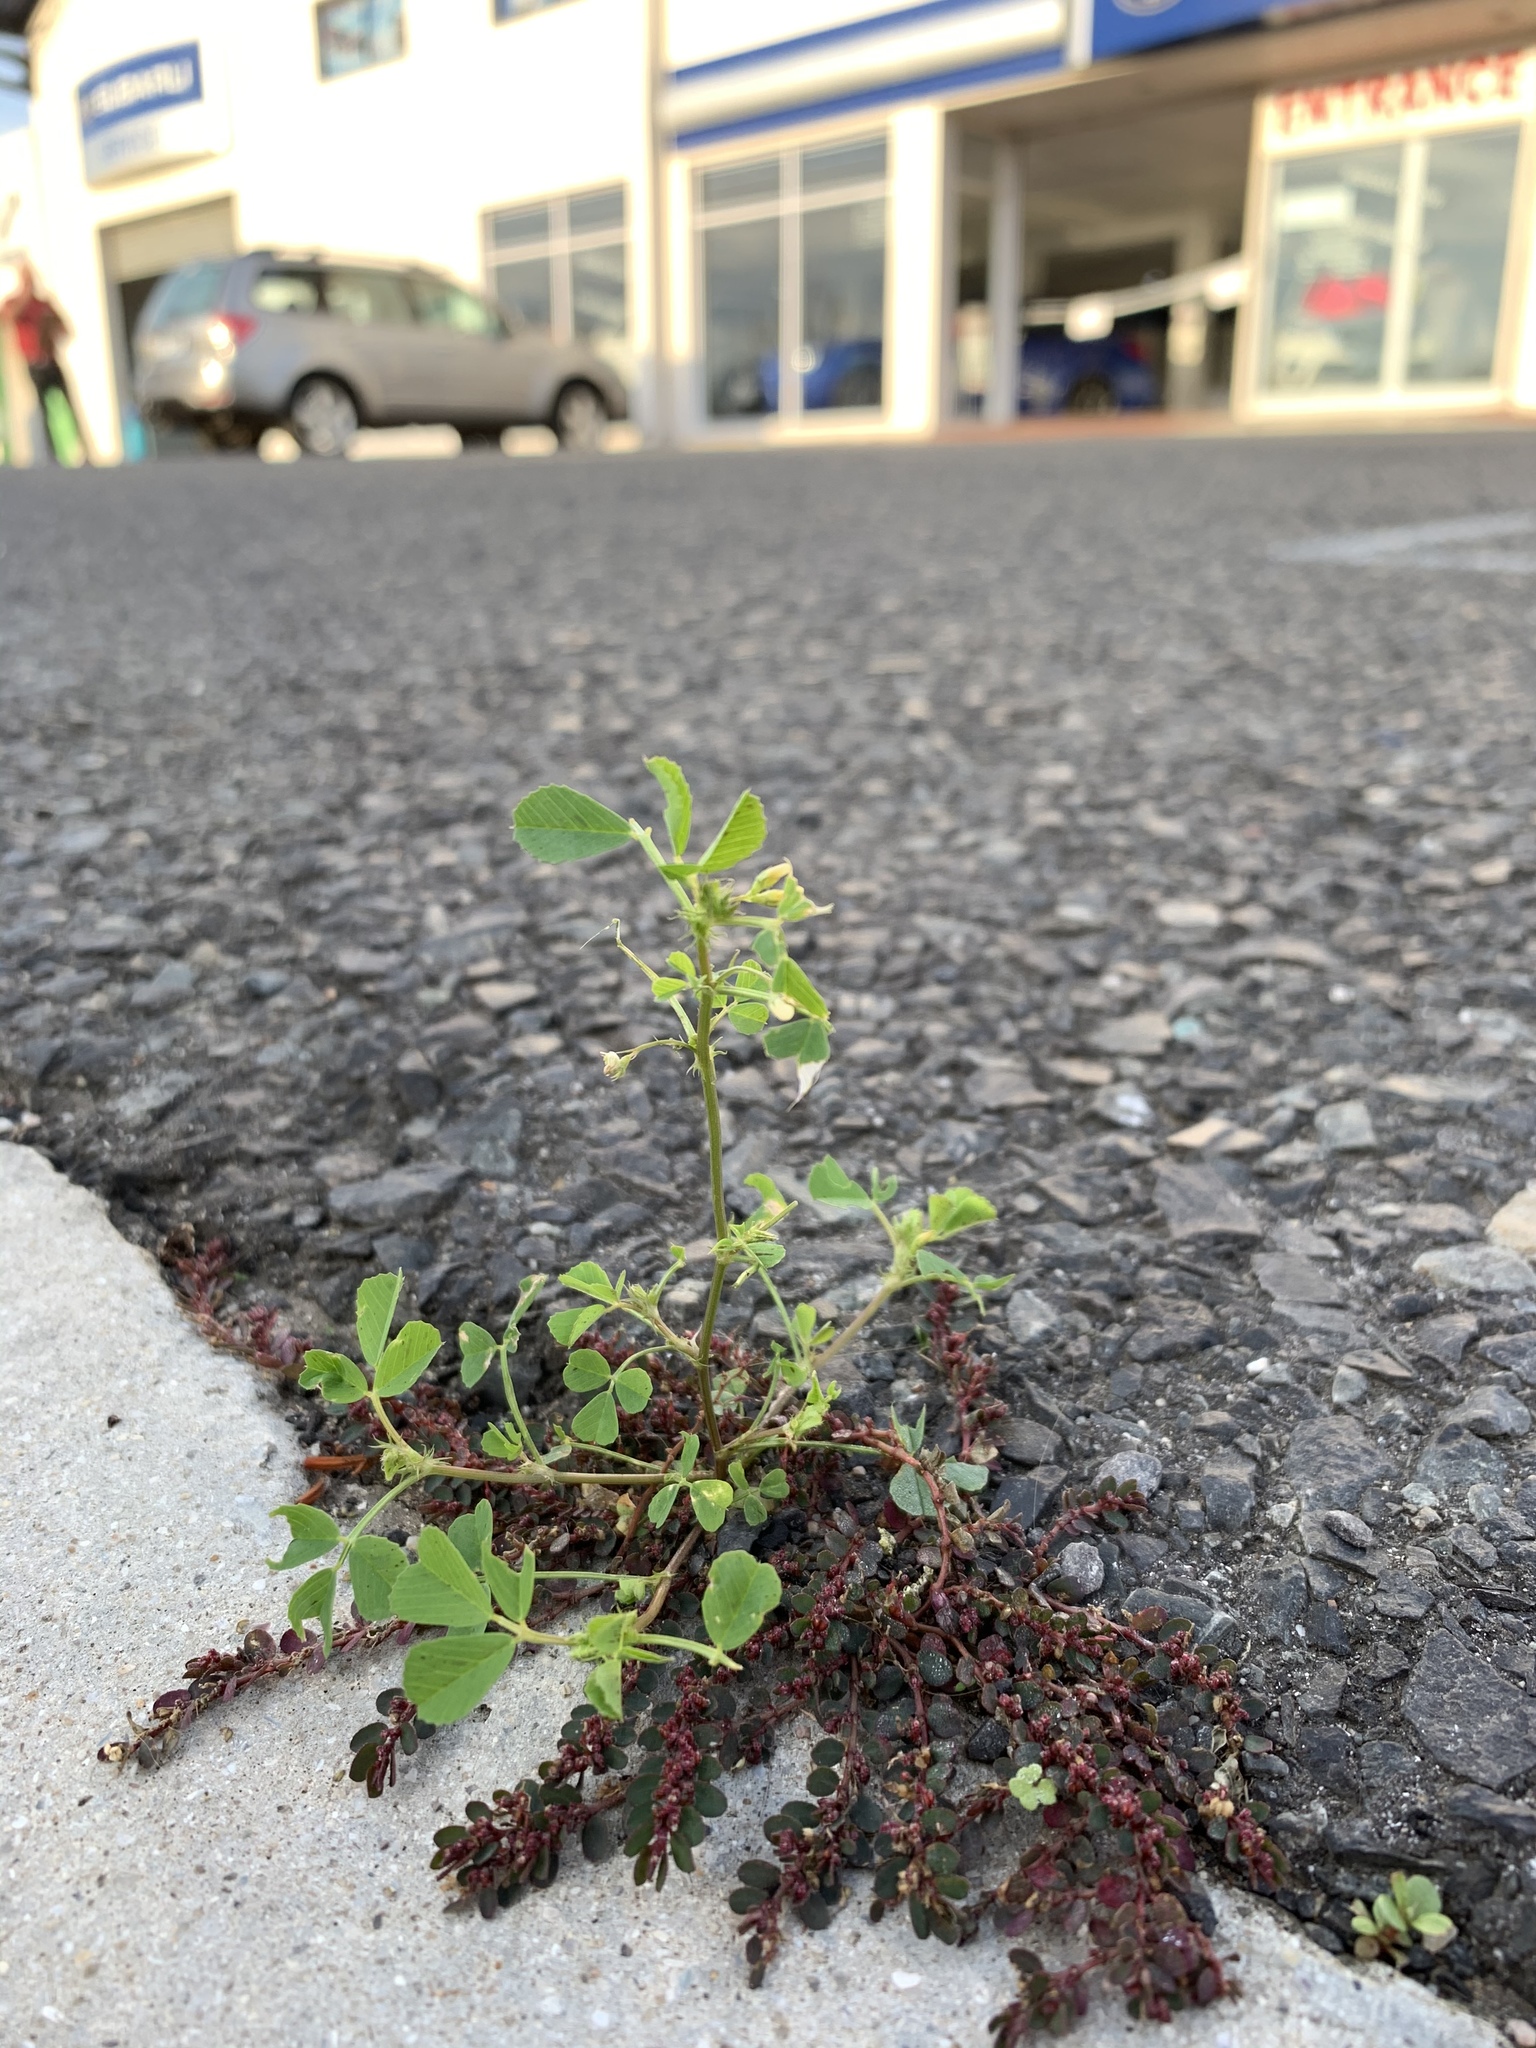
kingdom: Plantae
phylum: Tracheophyta
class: Magnoliopsida
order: Fabales
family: Fabaceae
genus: Medicago
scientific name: Medicago polymorpha
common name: Burclover
